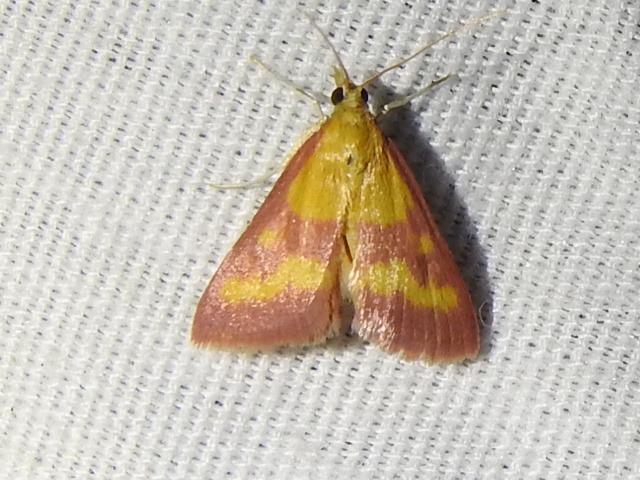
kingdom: Animalia
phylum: Arthropoda
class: Insecta
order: Lepidoptera
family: Crambidae
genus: Pyrausta
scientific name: Pyrausta laticlavia
